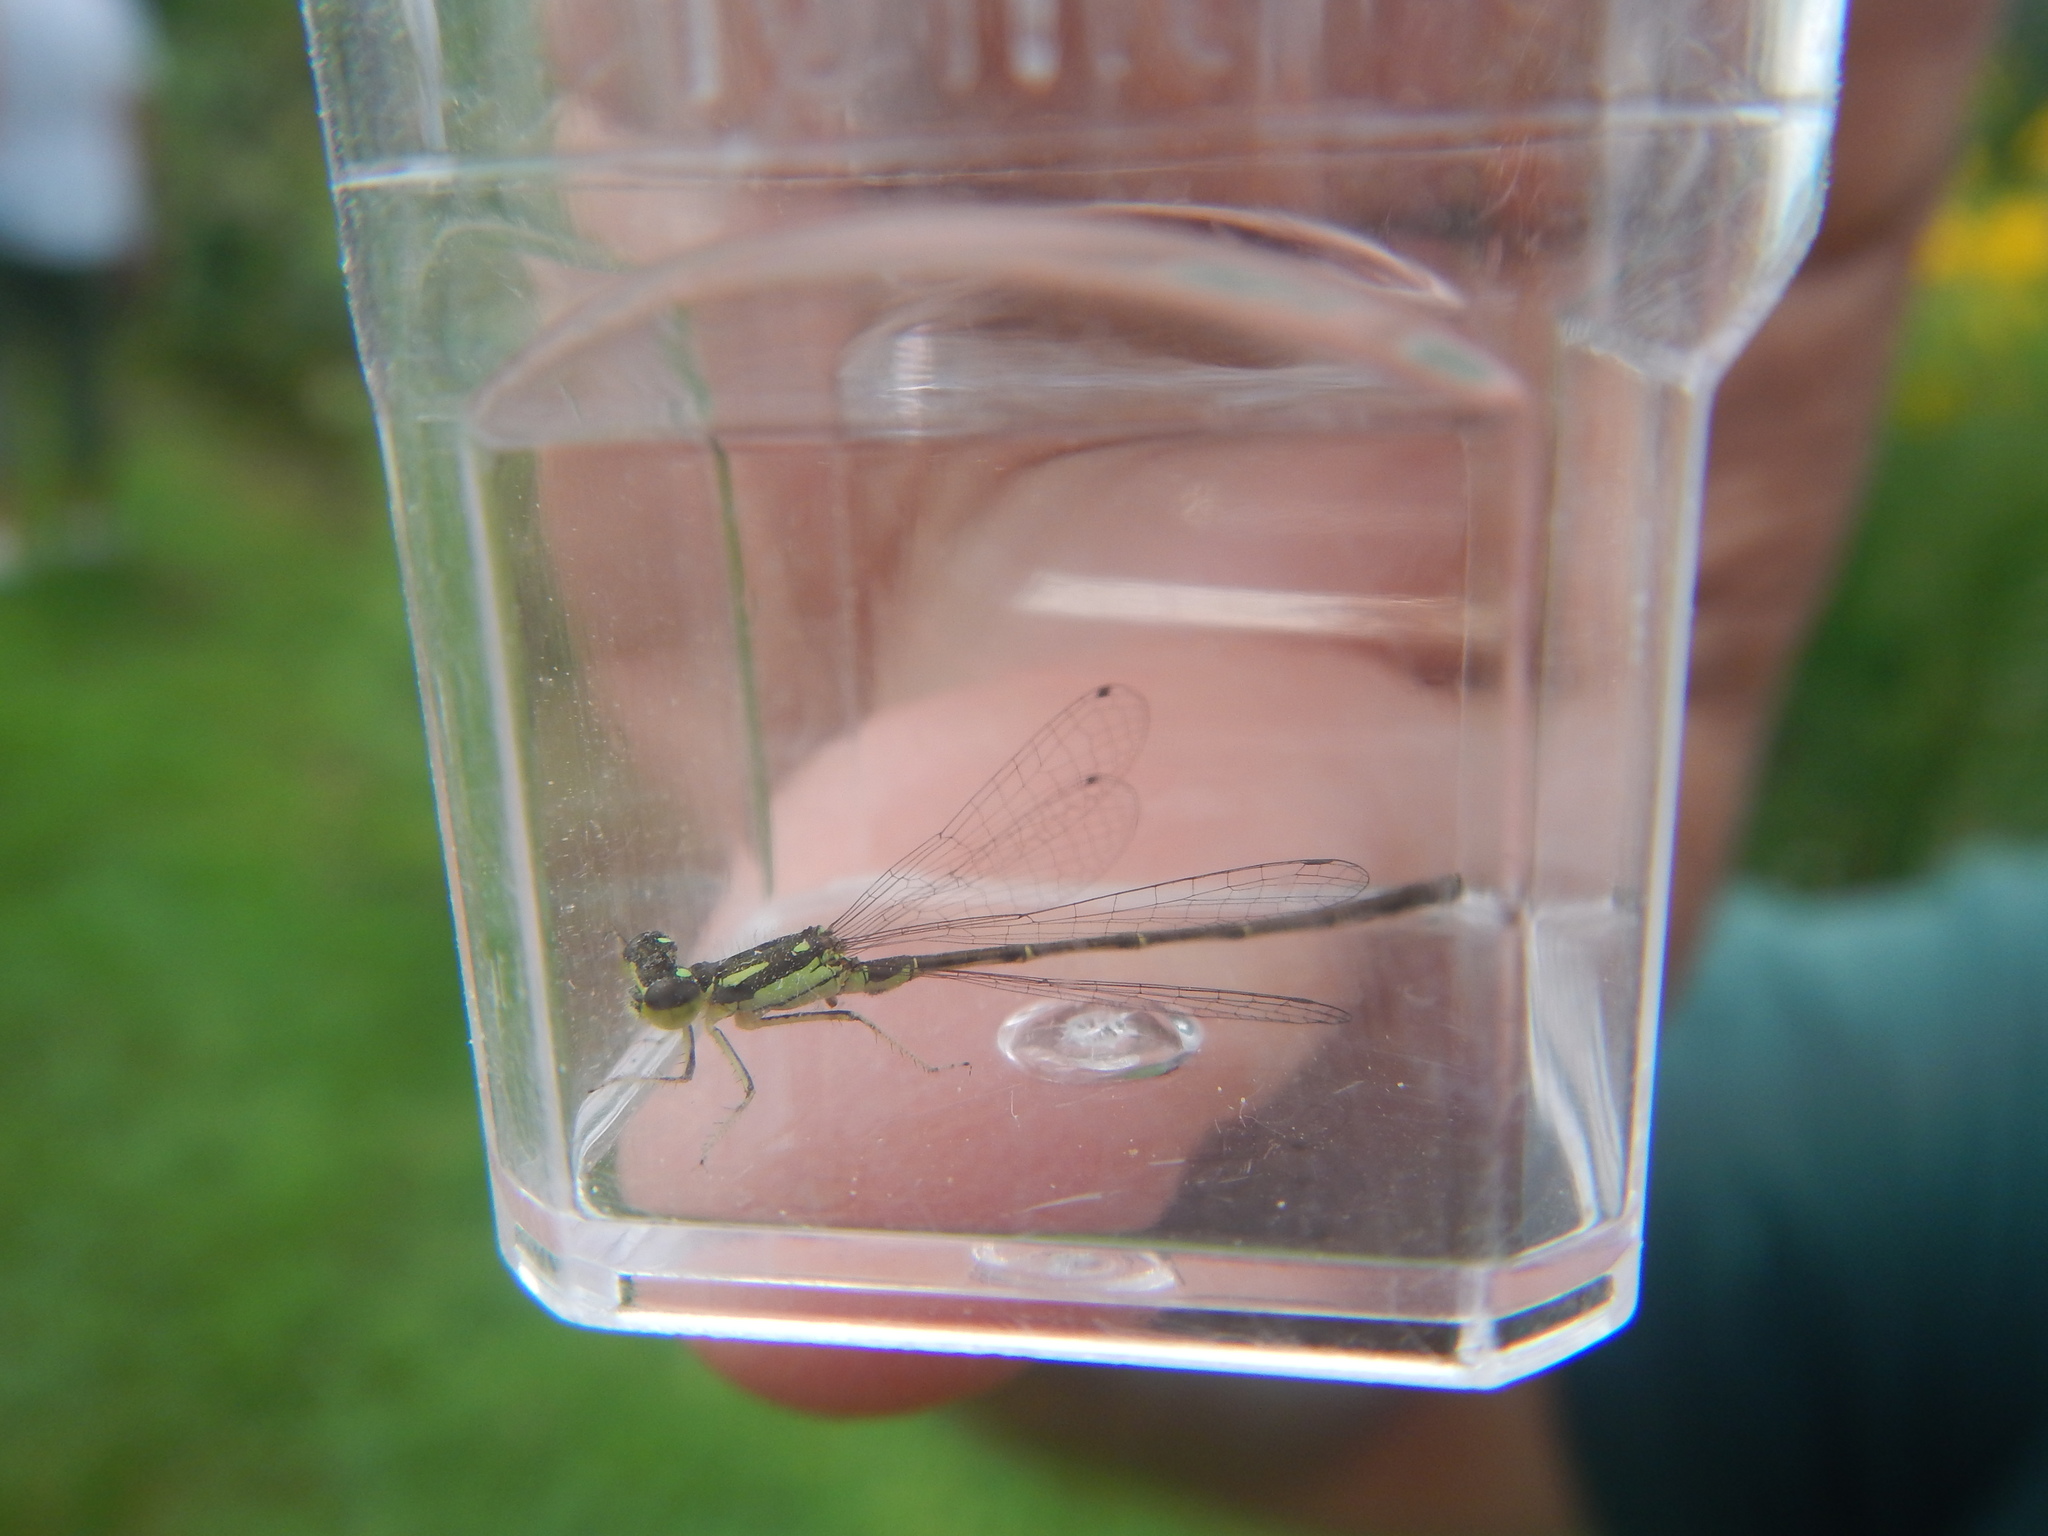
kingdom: Animalia
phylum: Arthropoda
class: Insecta
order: Odonata
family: Coenagrionidae
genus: Ischnura
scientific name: Ischnura posita
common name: Fragile forktail
